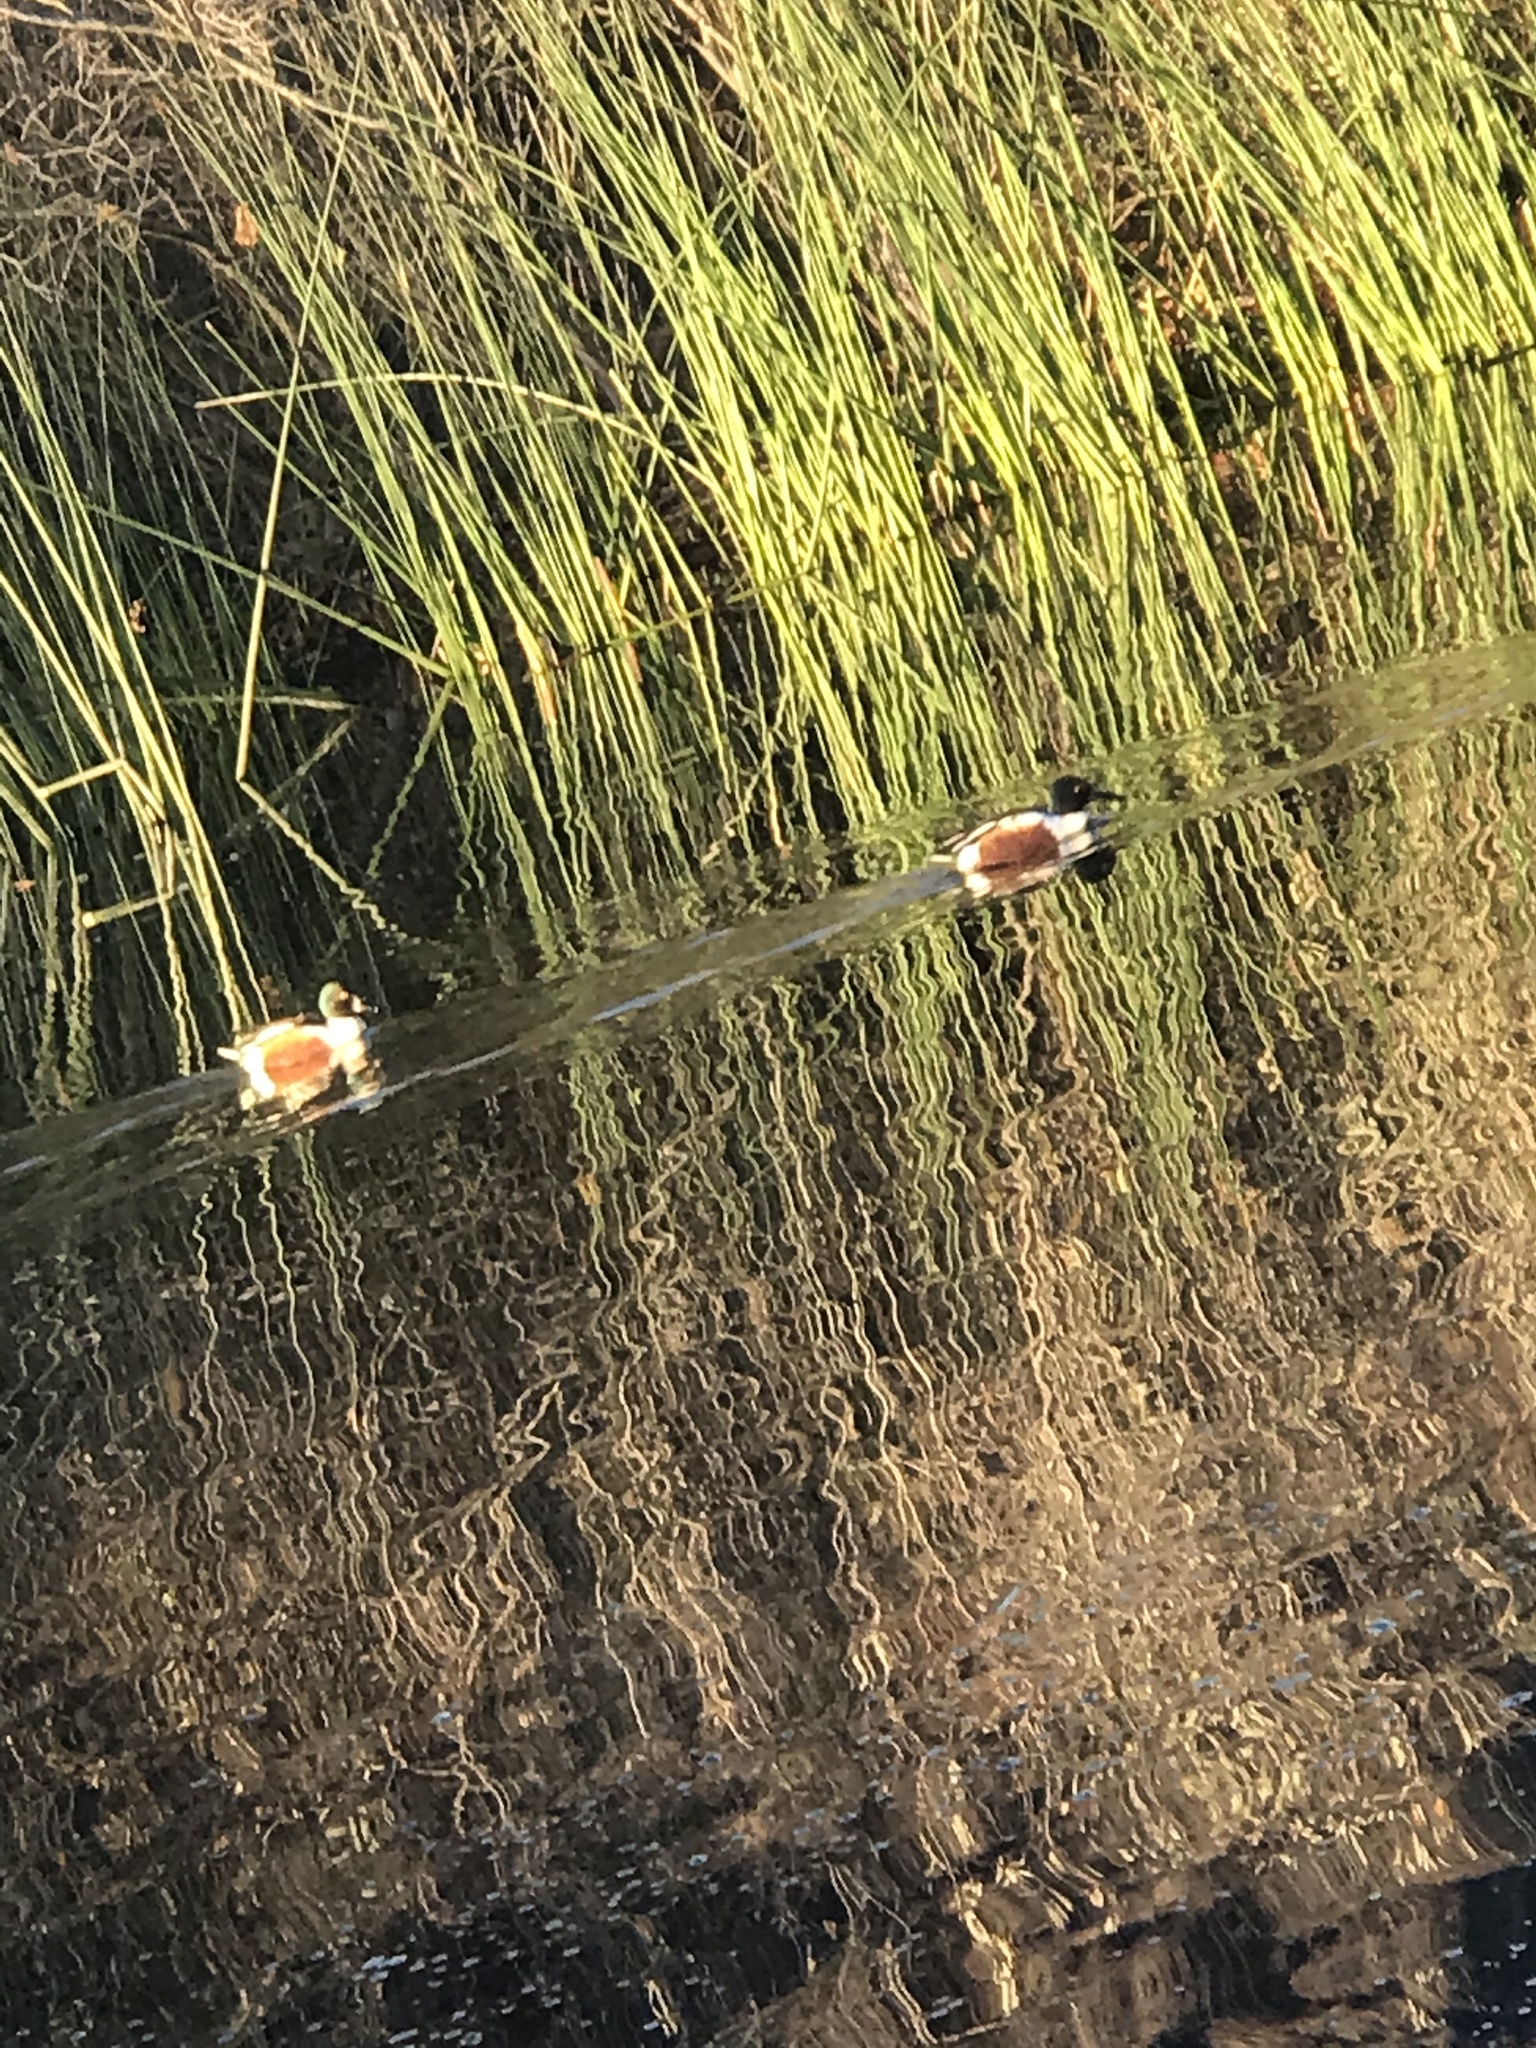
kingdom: Animalia
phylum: Chordata
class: Aves
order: Anseriformes
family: Anatidae
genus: Spatula
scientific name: Spatula clypeata
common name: Northern shoveler
